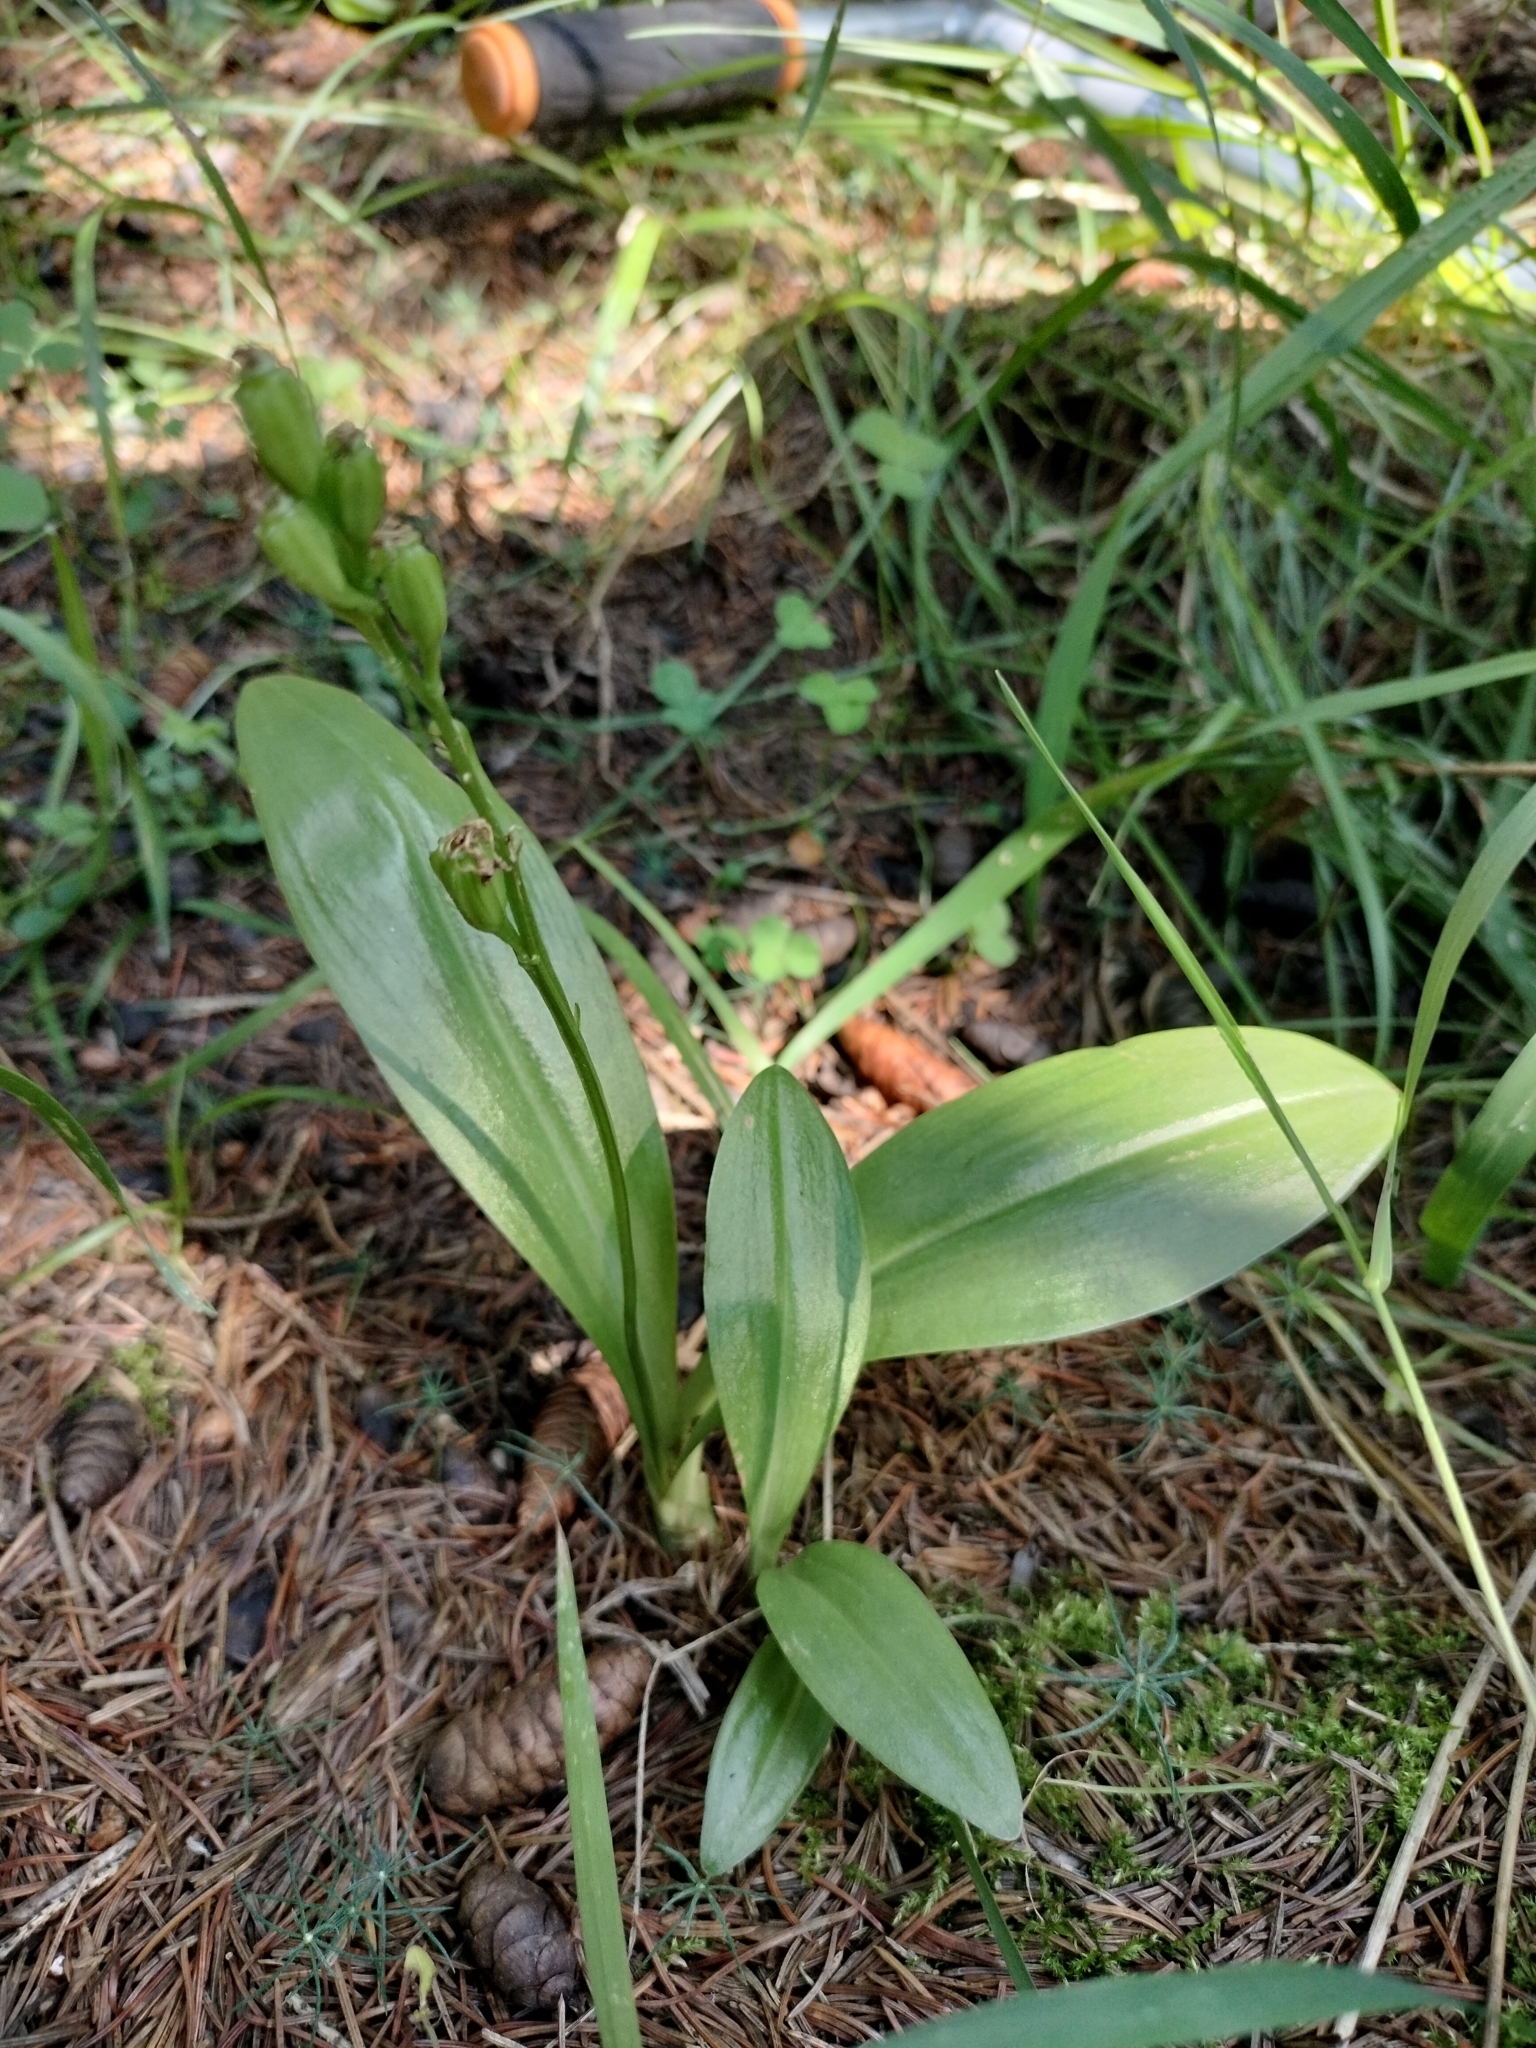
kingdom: Animalia
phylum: Arthropoda
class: Insecta
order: Coleoptera
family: Curculionidae
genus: Liparis
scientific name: Liparis loeselii
